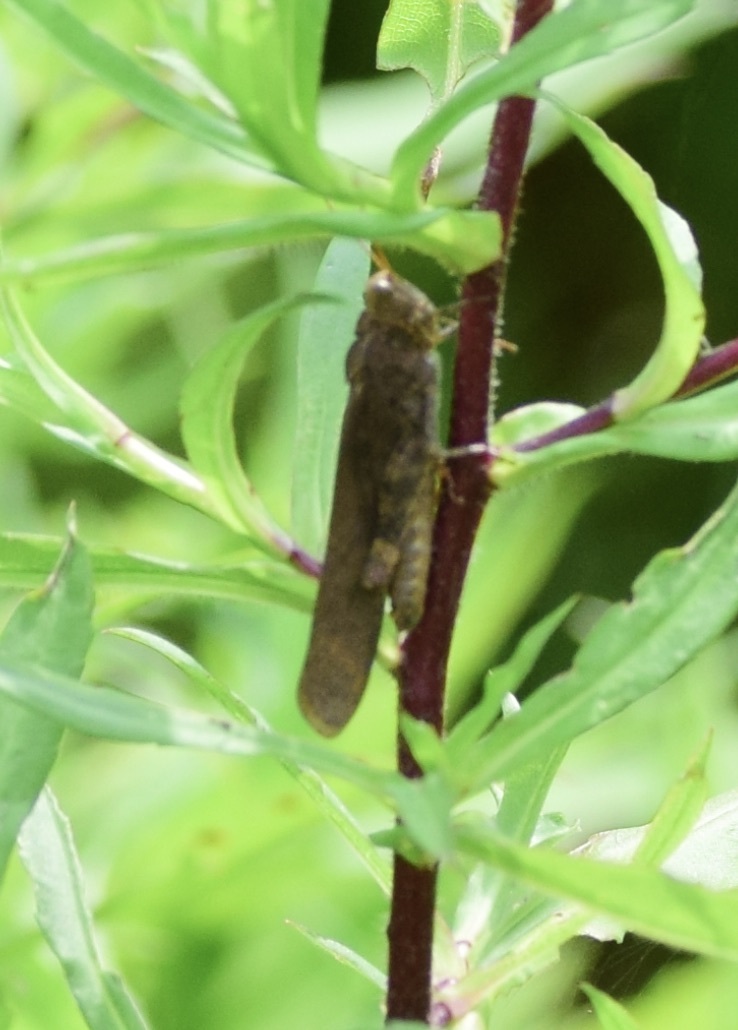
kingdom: Animalia
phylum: Arthropoda
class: Insecta
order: Orthoptera
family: Acrididae
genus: Dissosteira
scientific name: Dissosteira carolina
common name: Carolina grasshopper
